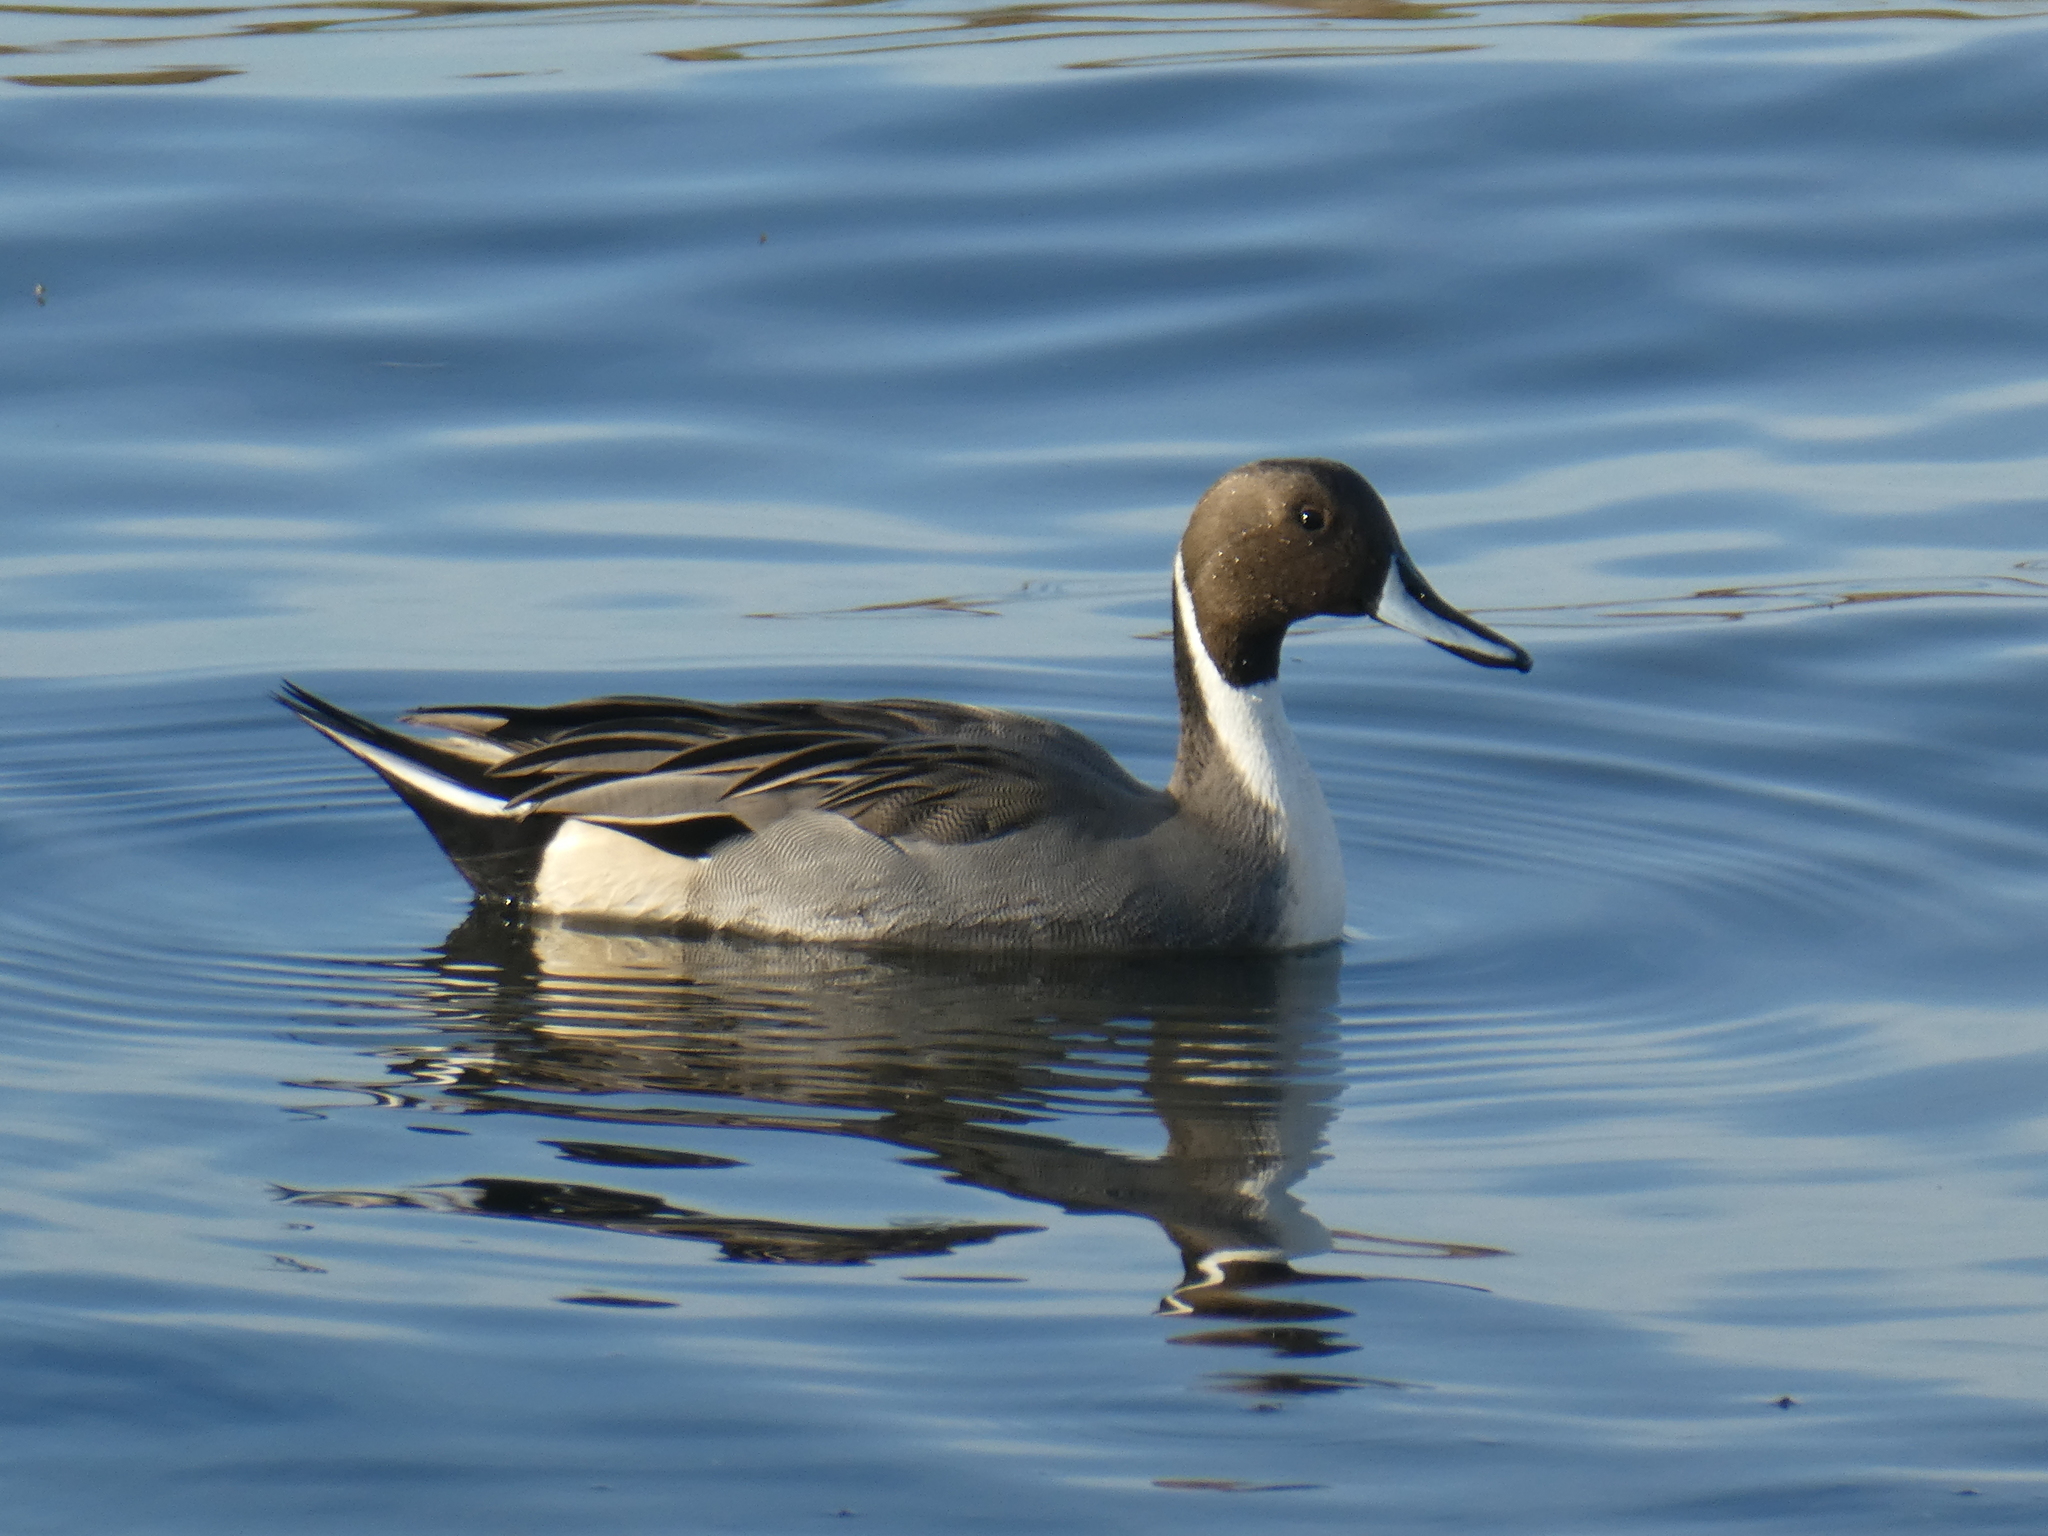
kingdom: Animalia
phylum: Chordata
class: Aves
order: Anseriformes
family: Anatidae
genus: Anas
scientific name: Anas acuta
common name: Northern pintail
